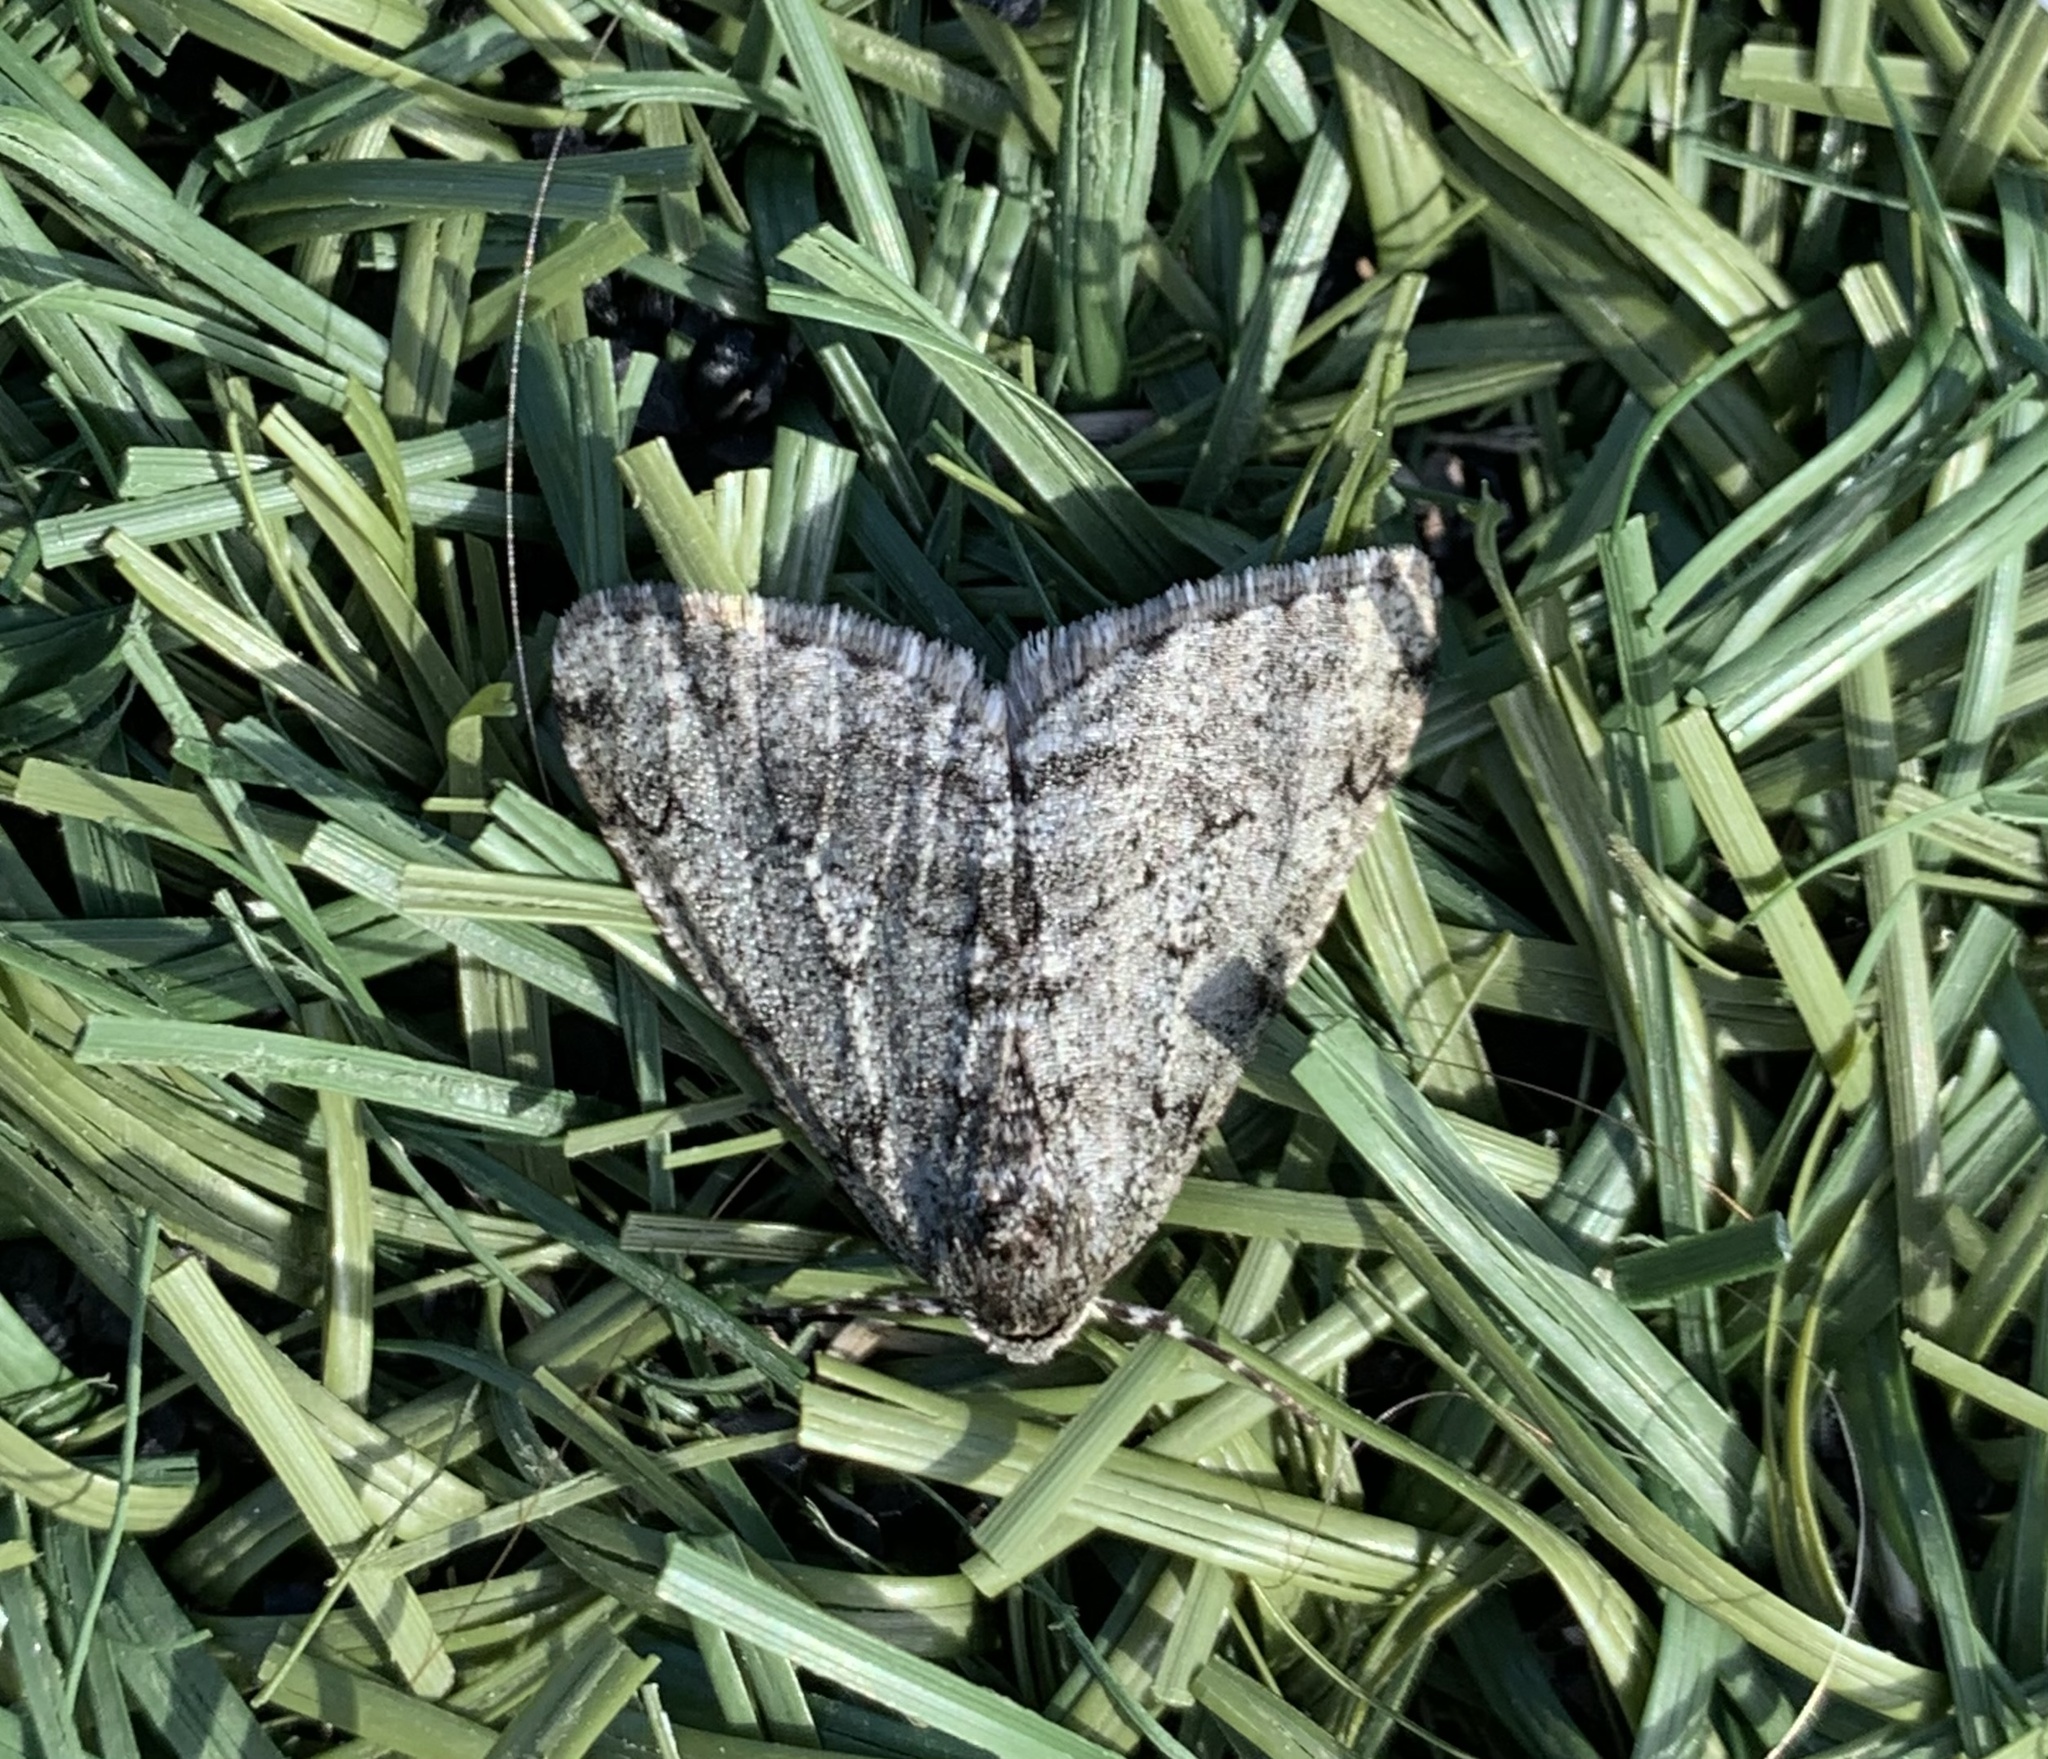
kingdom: Animalia
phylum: Arthropoda
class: Insecta
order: Lepidoptera
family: Geometridae
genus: Phigalia
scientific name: Phigalia strigataria
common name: Small phigalia
